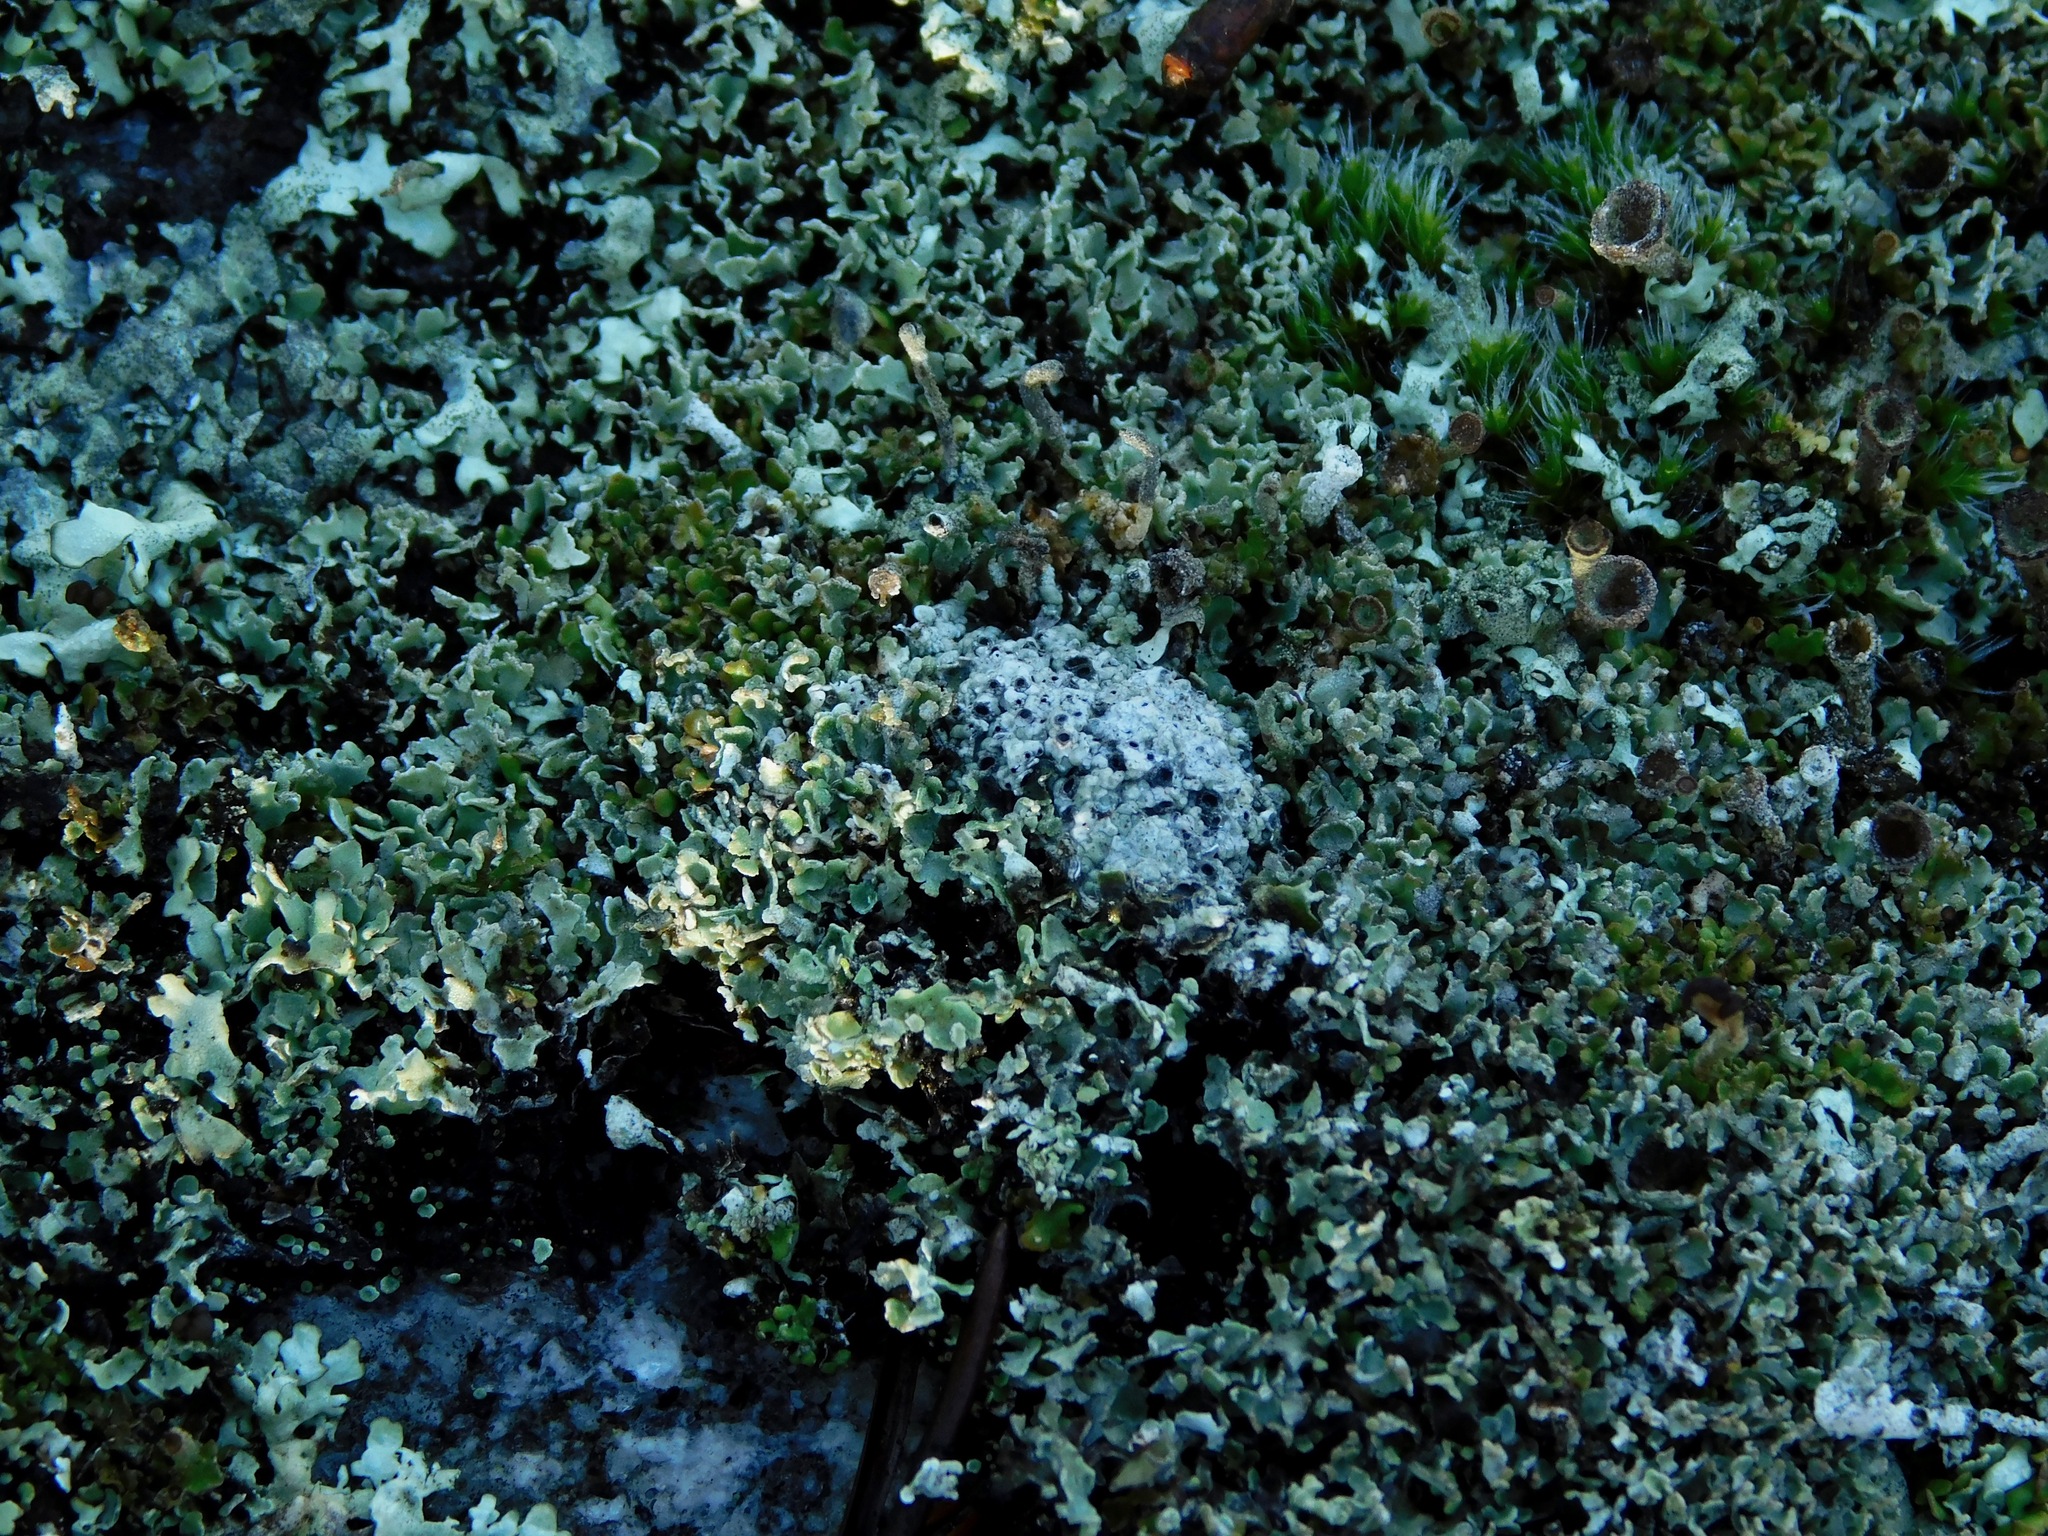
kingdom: Fungi
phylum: Ascomycota
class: Lecanoromycetes
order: Ostropales
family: Graphidaceae
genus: Diploschistes
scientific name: Diploschistes muscorum
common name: Cowpie lichen
